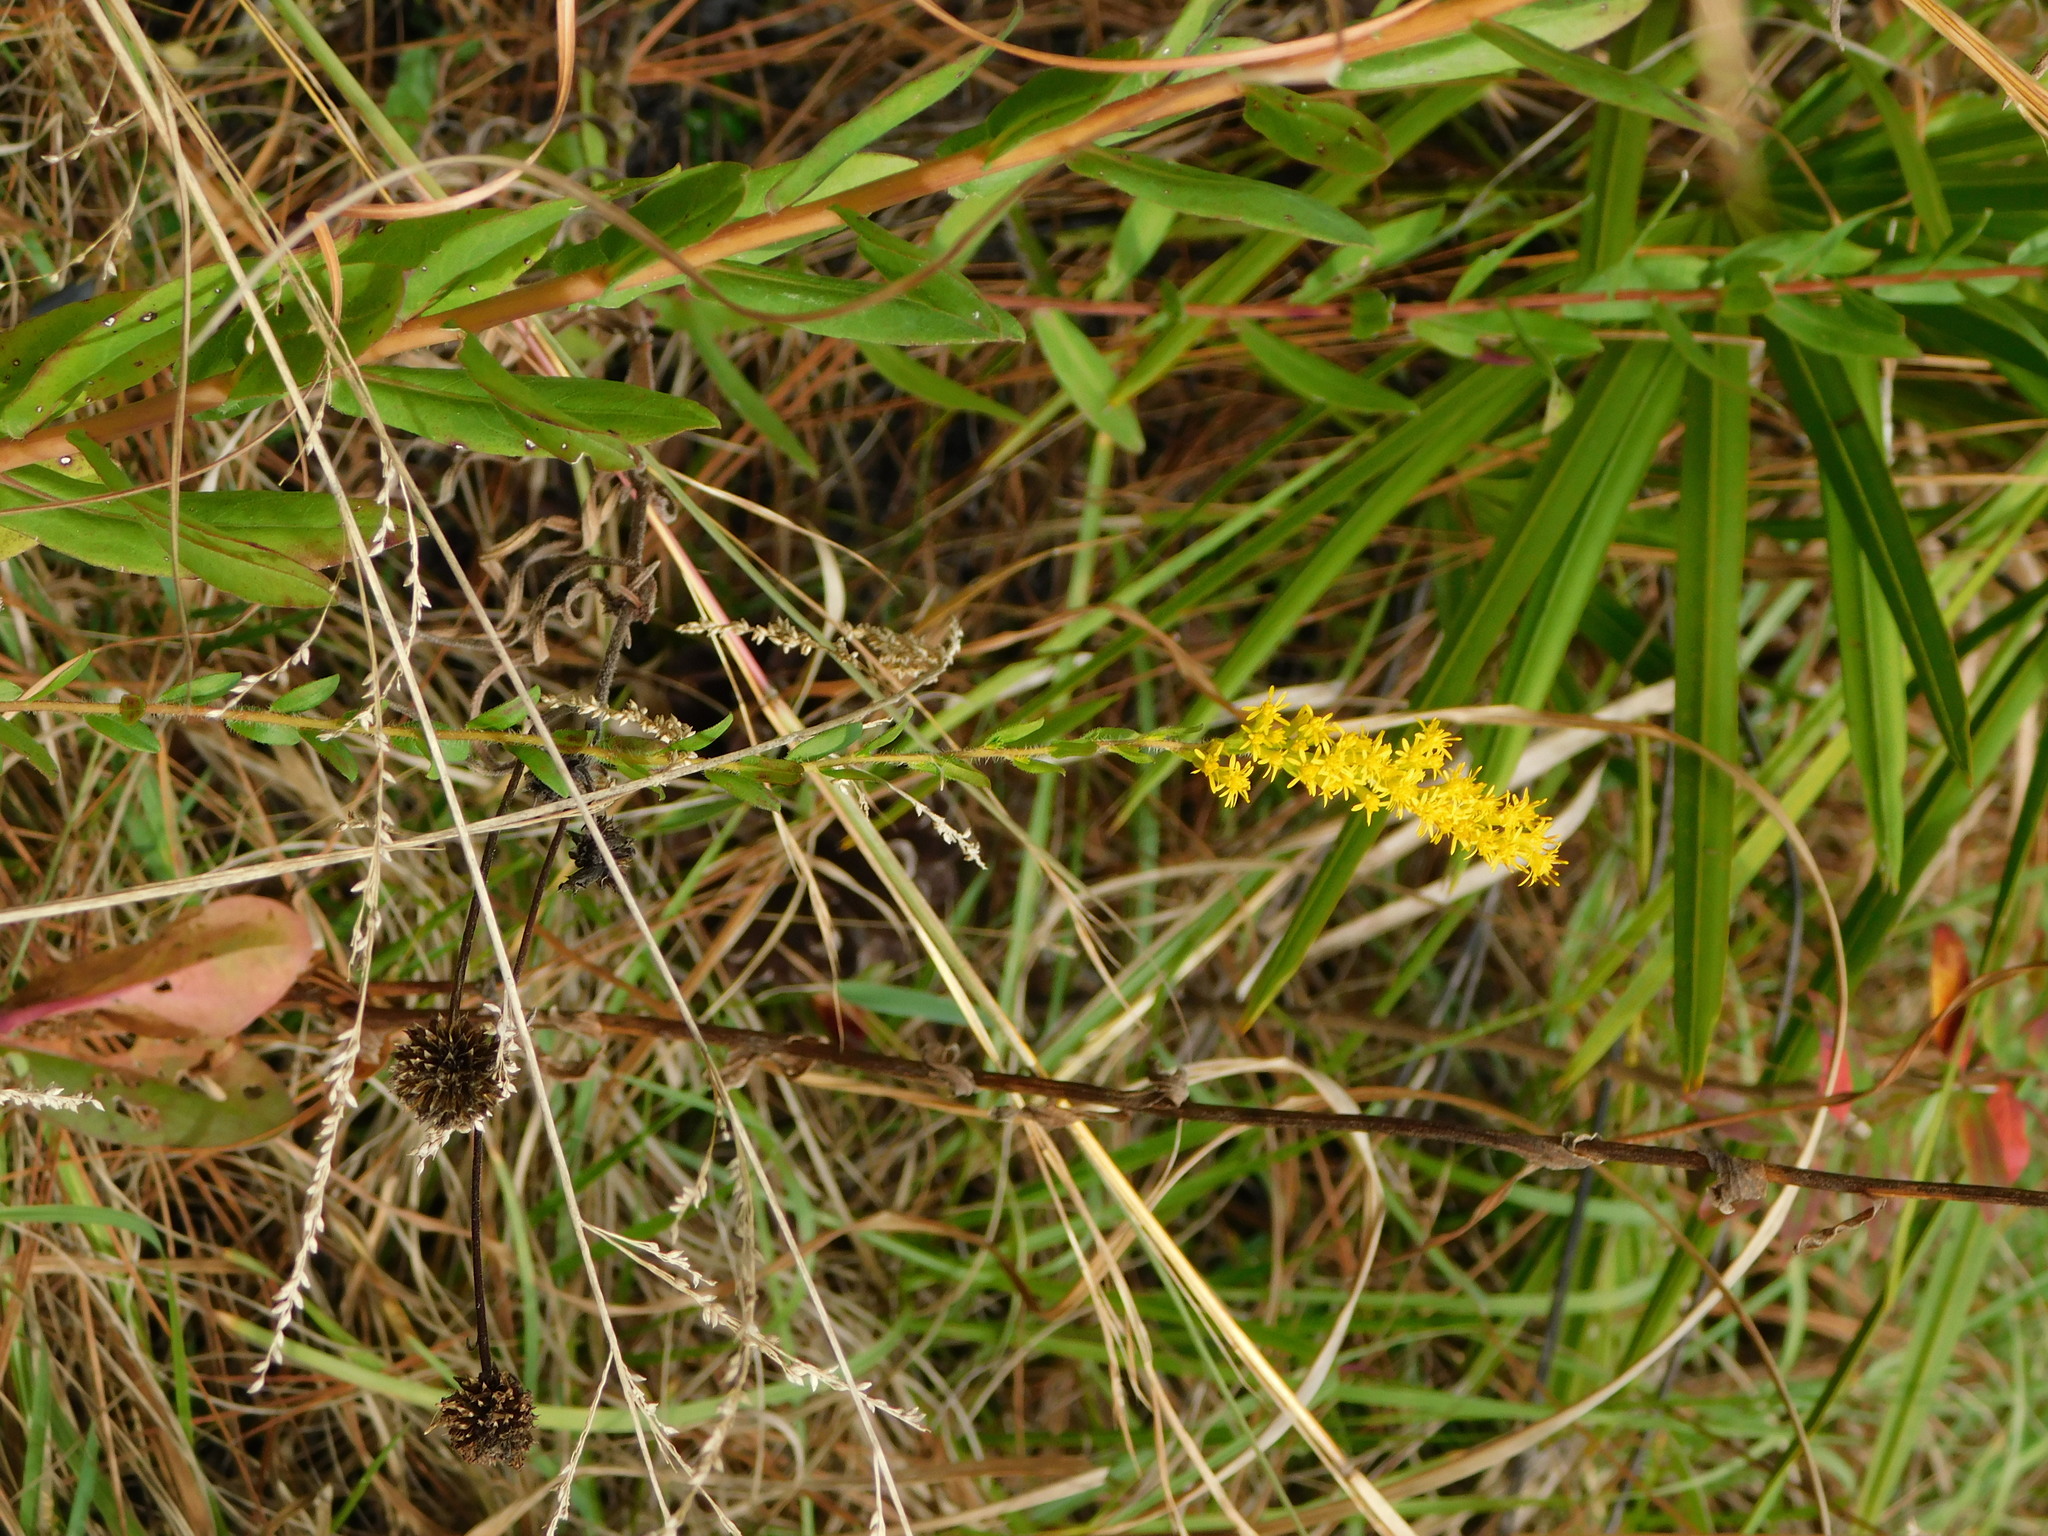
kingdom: Plantae
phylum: Tracheophyta
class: Magnoliopsida
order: Asterales
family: Asteraceae
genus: Solidago
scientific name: Solidago fistulosa
